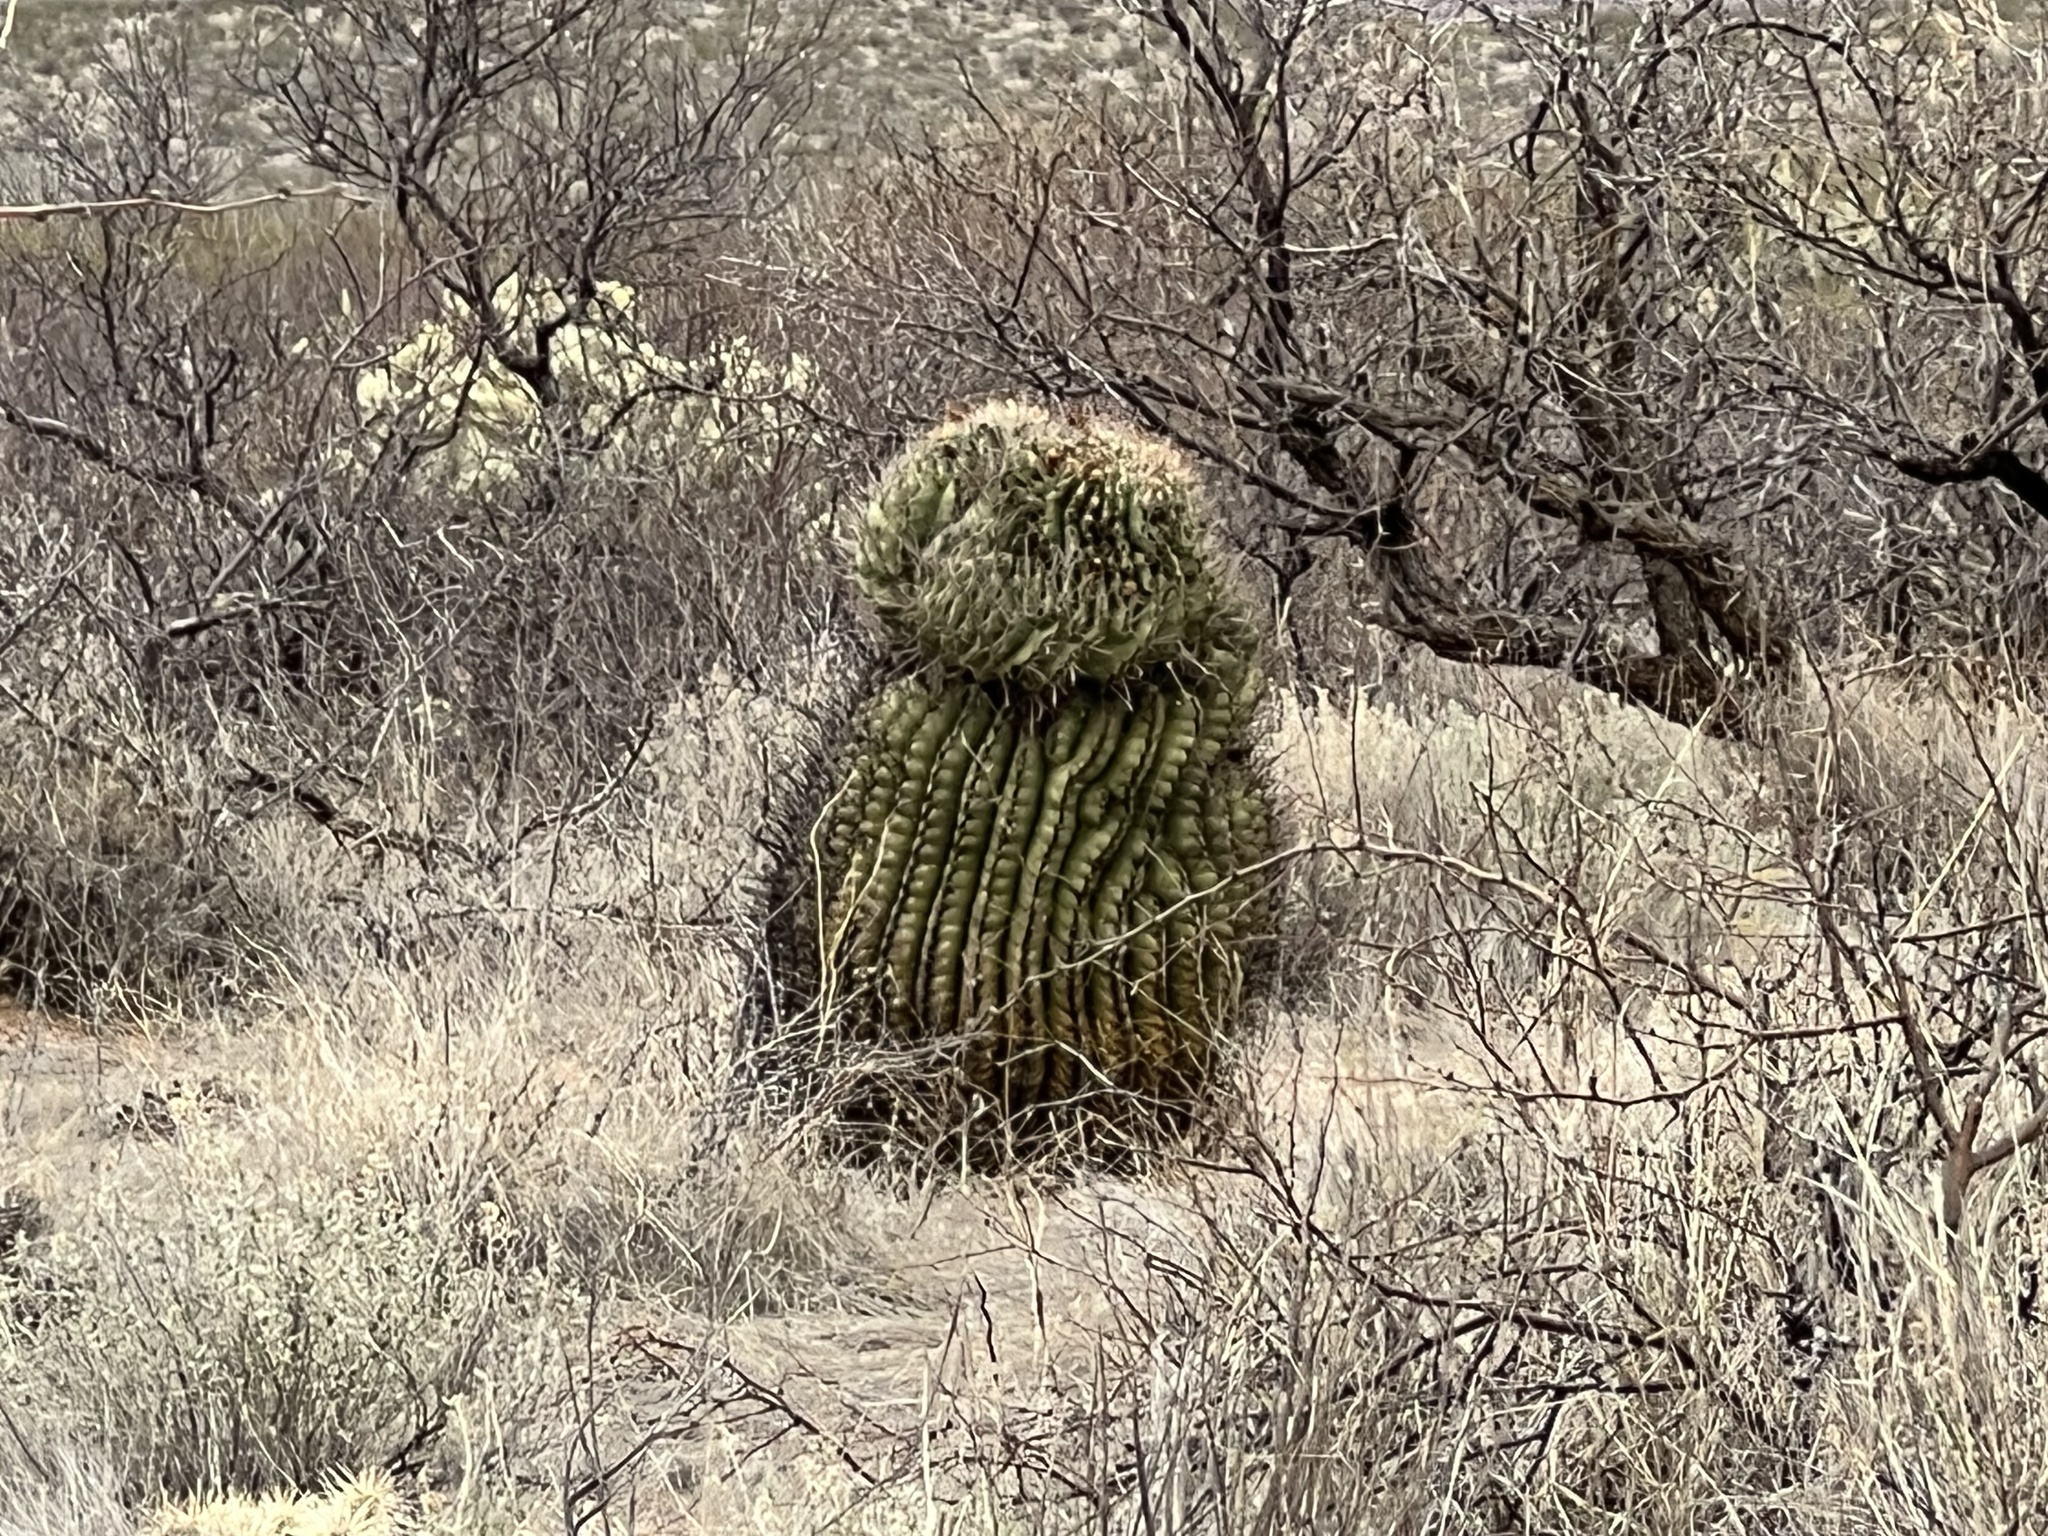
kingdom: Plantae
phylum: Tracheophyta
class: Magnoliopsida
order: Caryophyllales
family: Cactaceae
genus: Ferocactus
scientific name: Ferocactus wislizeni
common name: Candy barrel cactus
